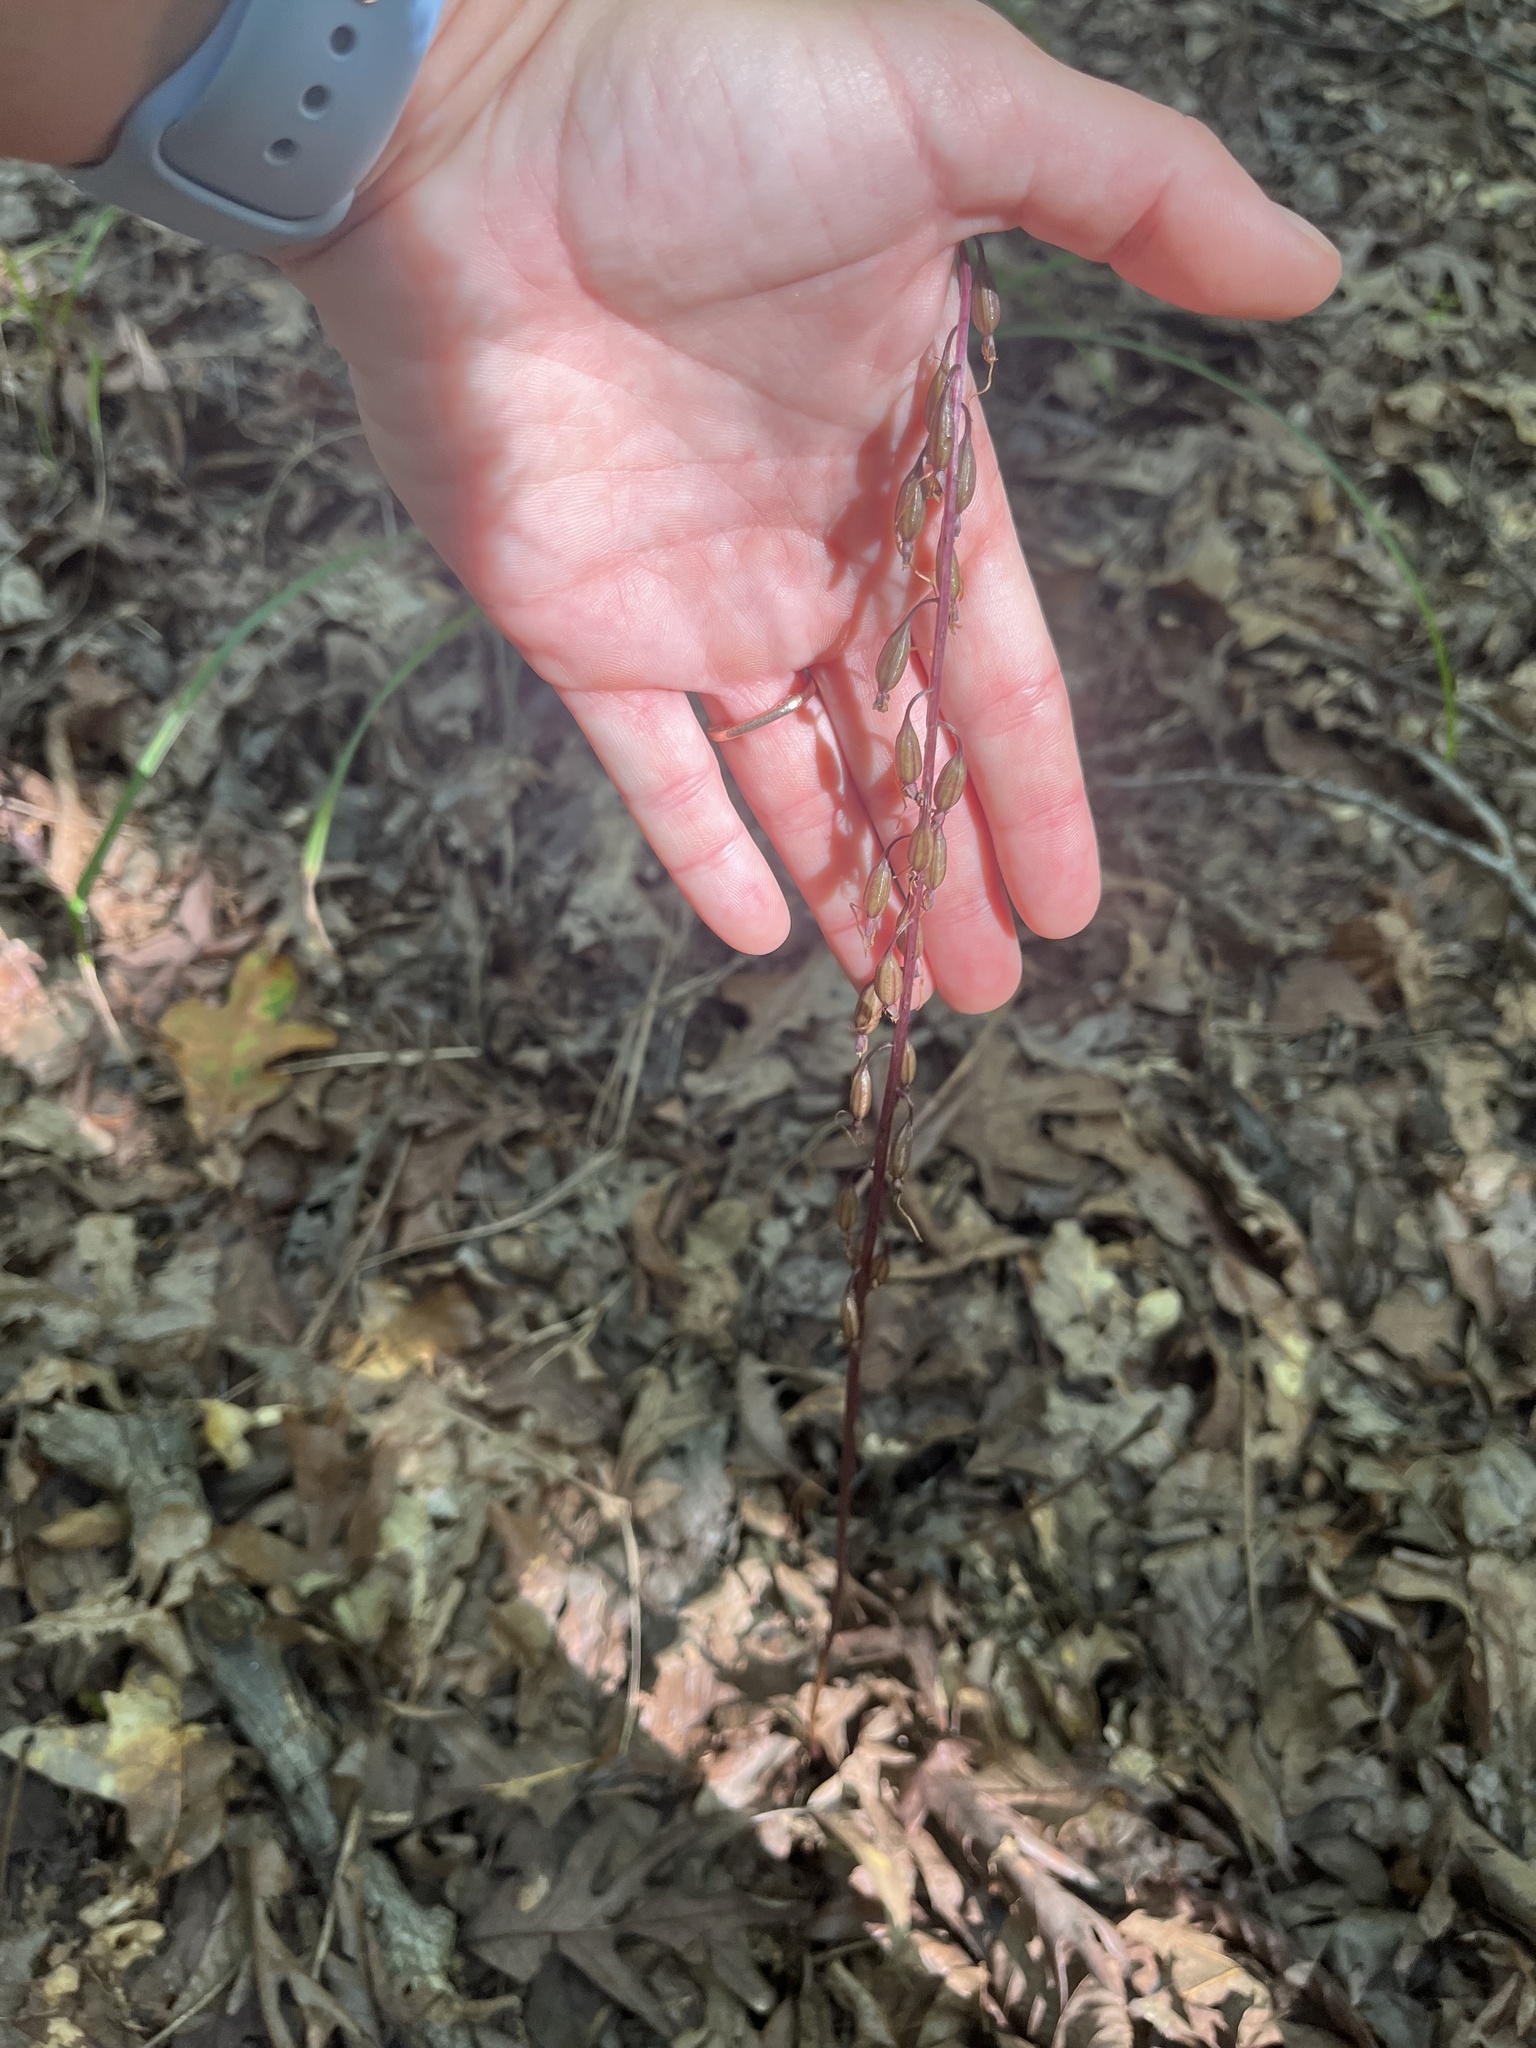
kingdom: Plantae
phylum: Tracheophyta
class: Liliopsida
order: Asparagales
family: Orchidaceae
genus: Tipularia
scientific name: Tipularia discolor
